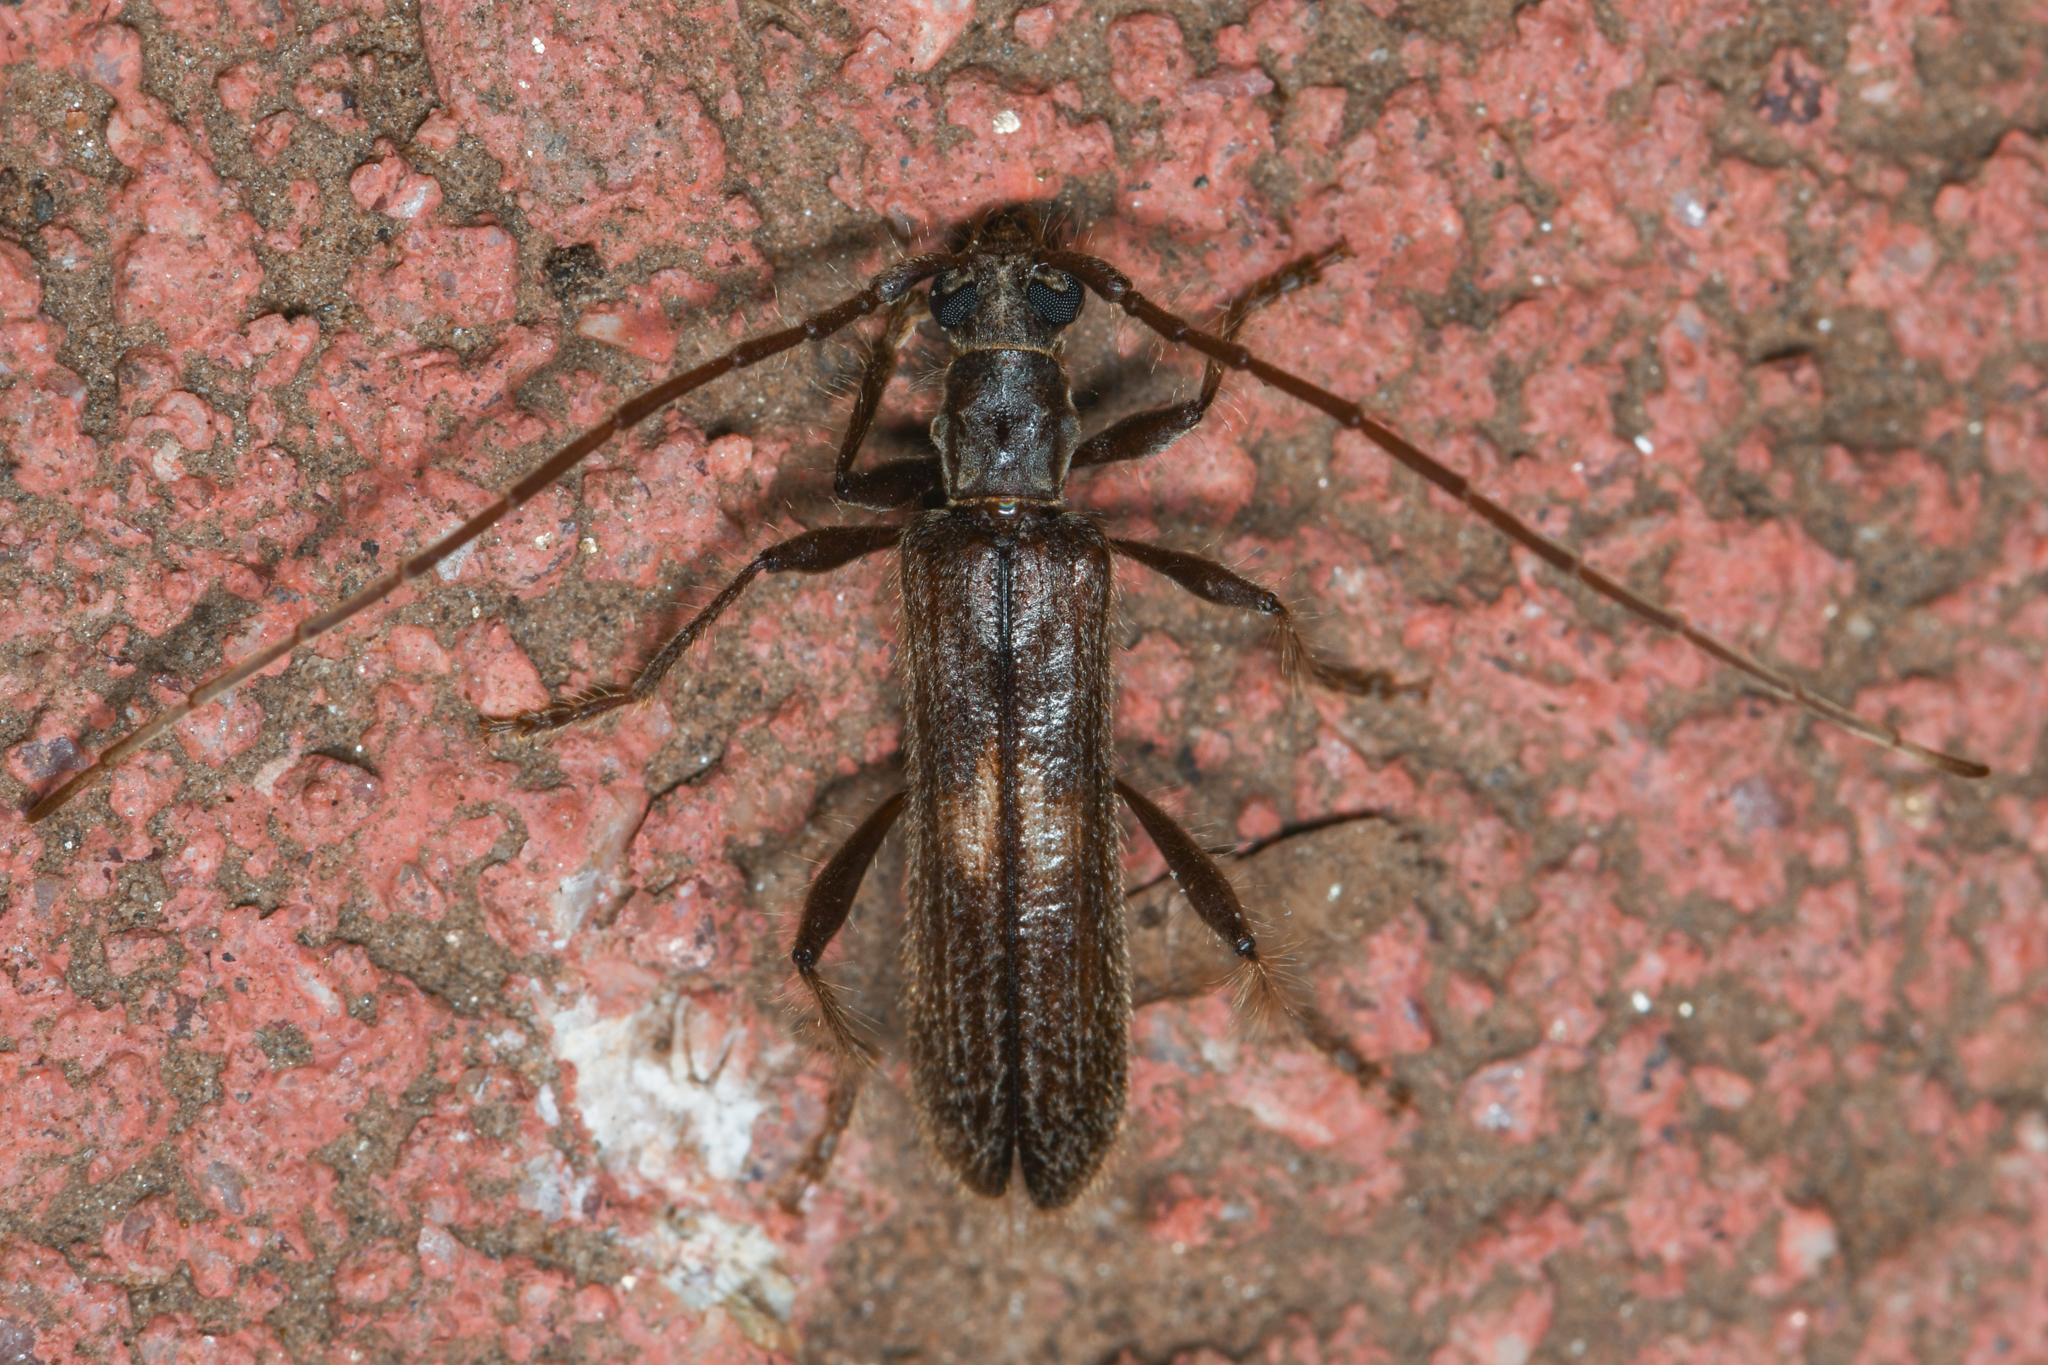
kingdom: Animalia
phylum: Arthropoda
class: Insecta
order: Coleoptera
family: Cerambycidae
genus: Megobrium
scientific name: Megobrium edwardsii
